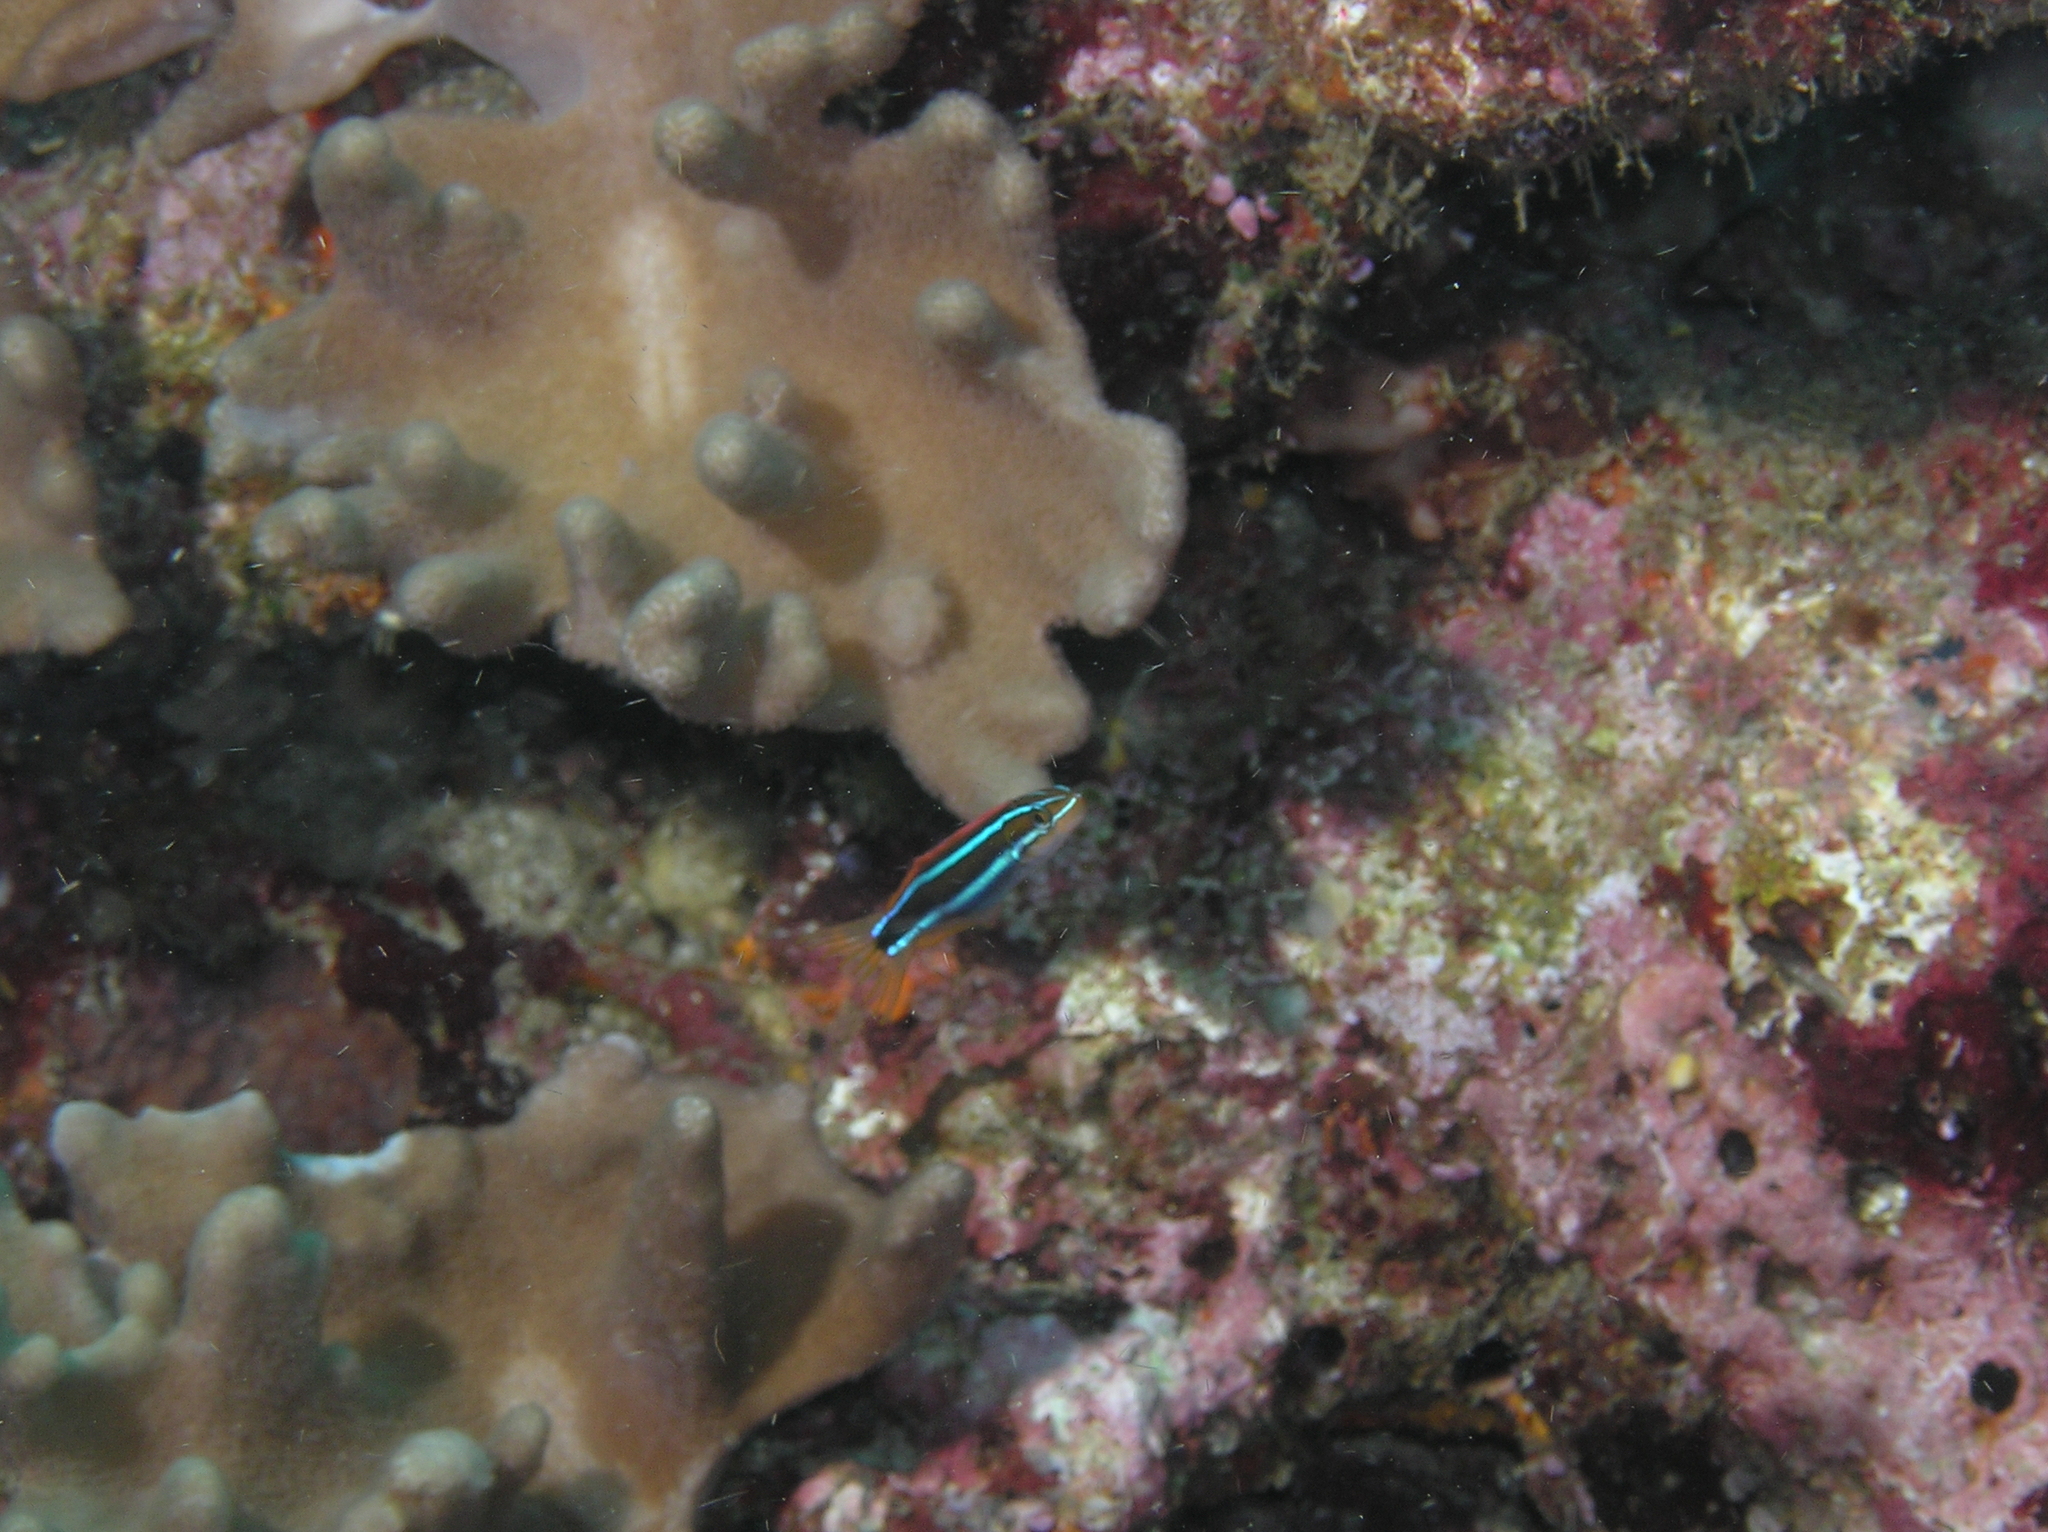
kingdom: Animalia
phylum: Chordata
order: Perciformes
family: Blenniidae
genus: Plagiotremus
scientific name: Plagiotremus rhinorhynchos
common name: Bluestriped fangblenny
